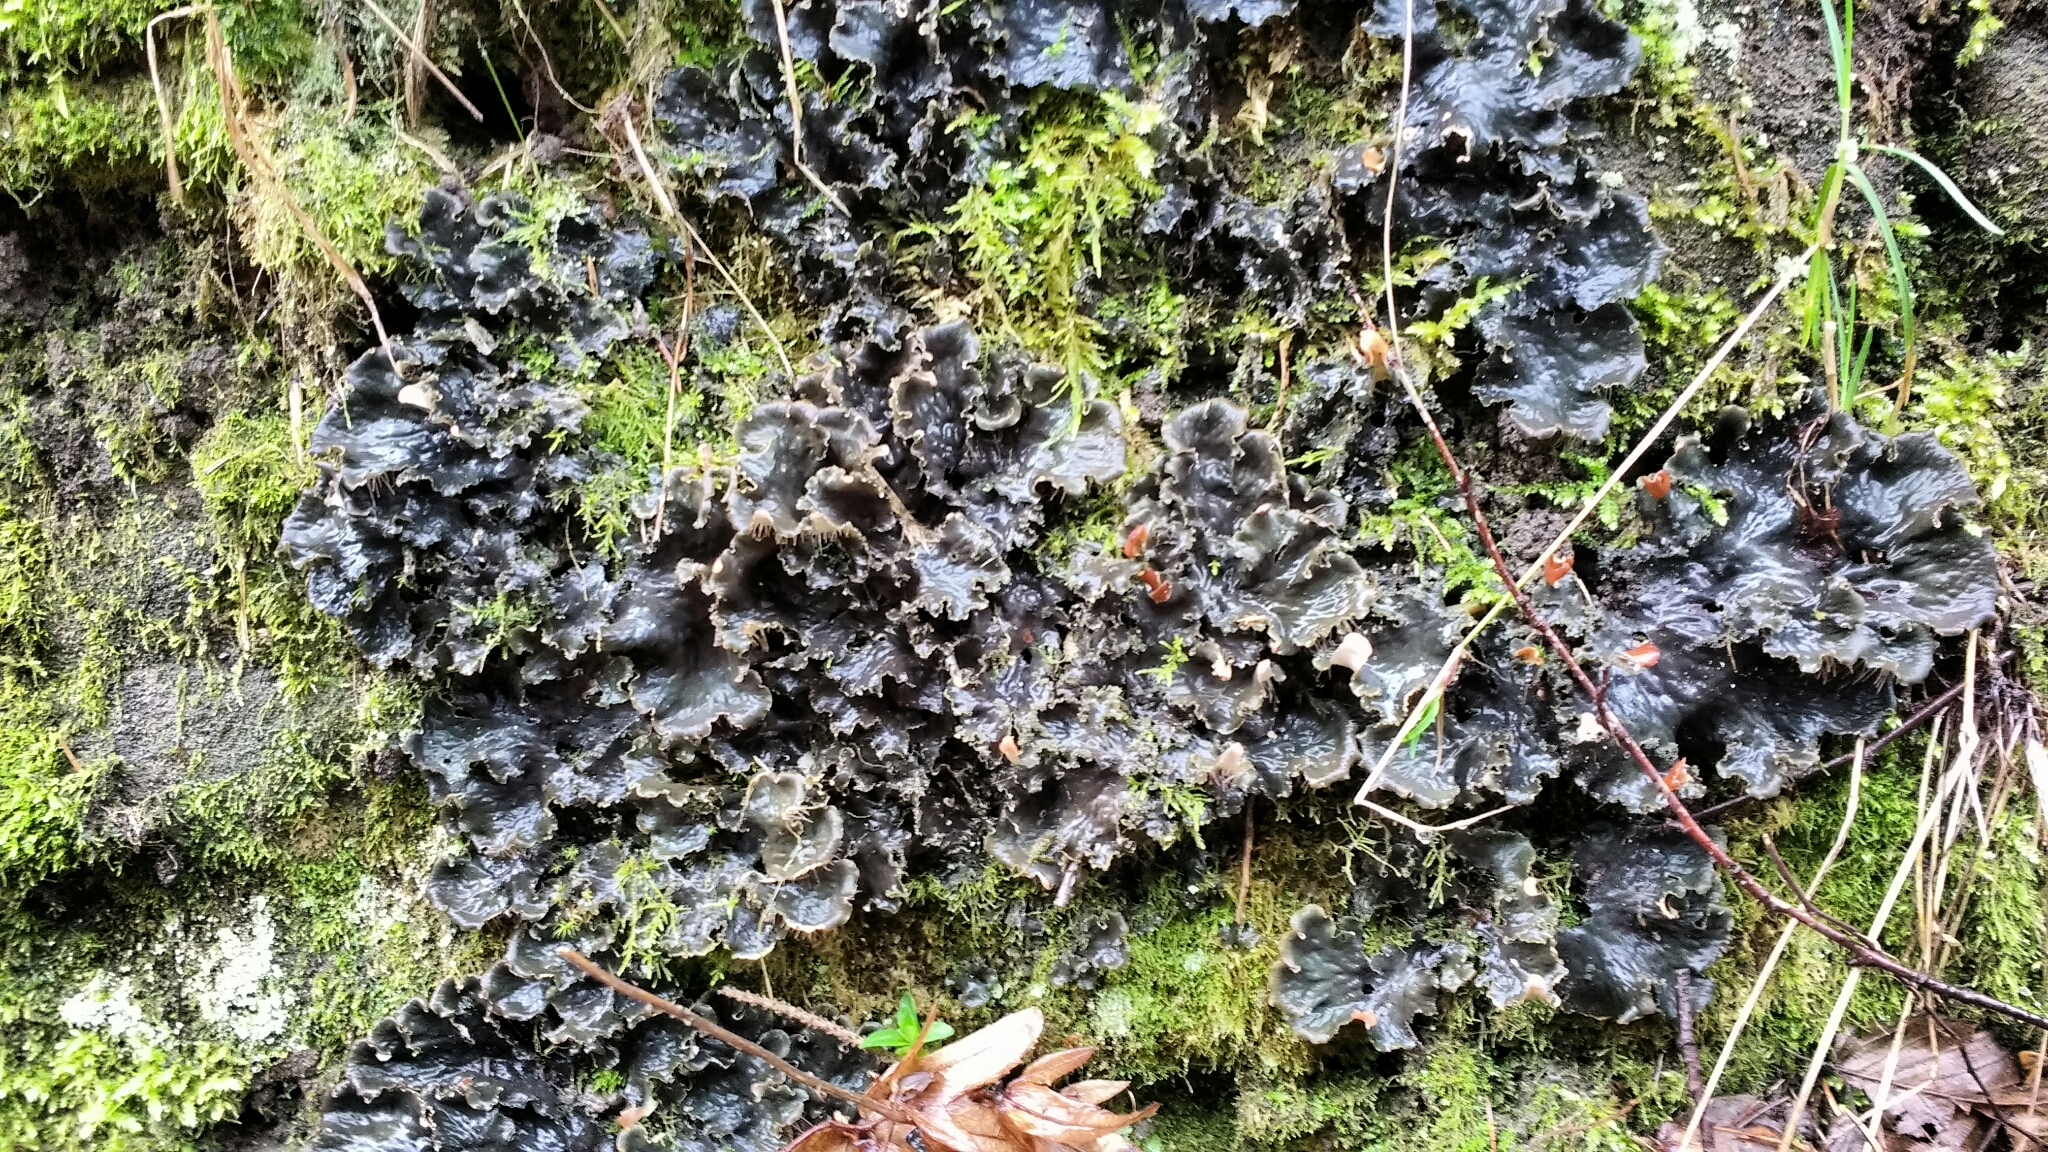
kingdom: Fungi
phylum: Ascomycota
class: Lecanoromycetes
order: Peltigerales
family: Peltigeraceae
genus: Peltigera
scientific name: Peltigera praetextata
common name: Scaly dog-lichen
